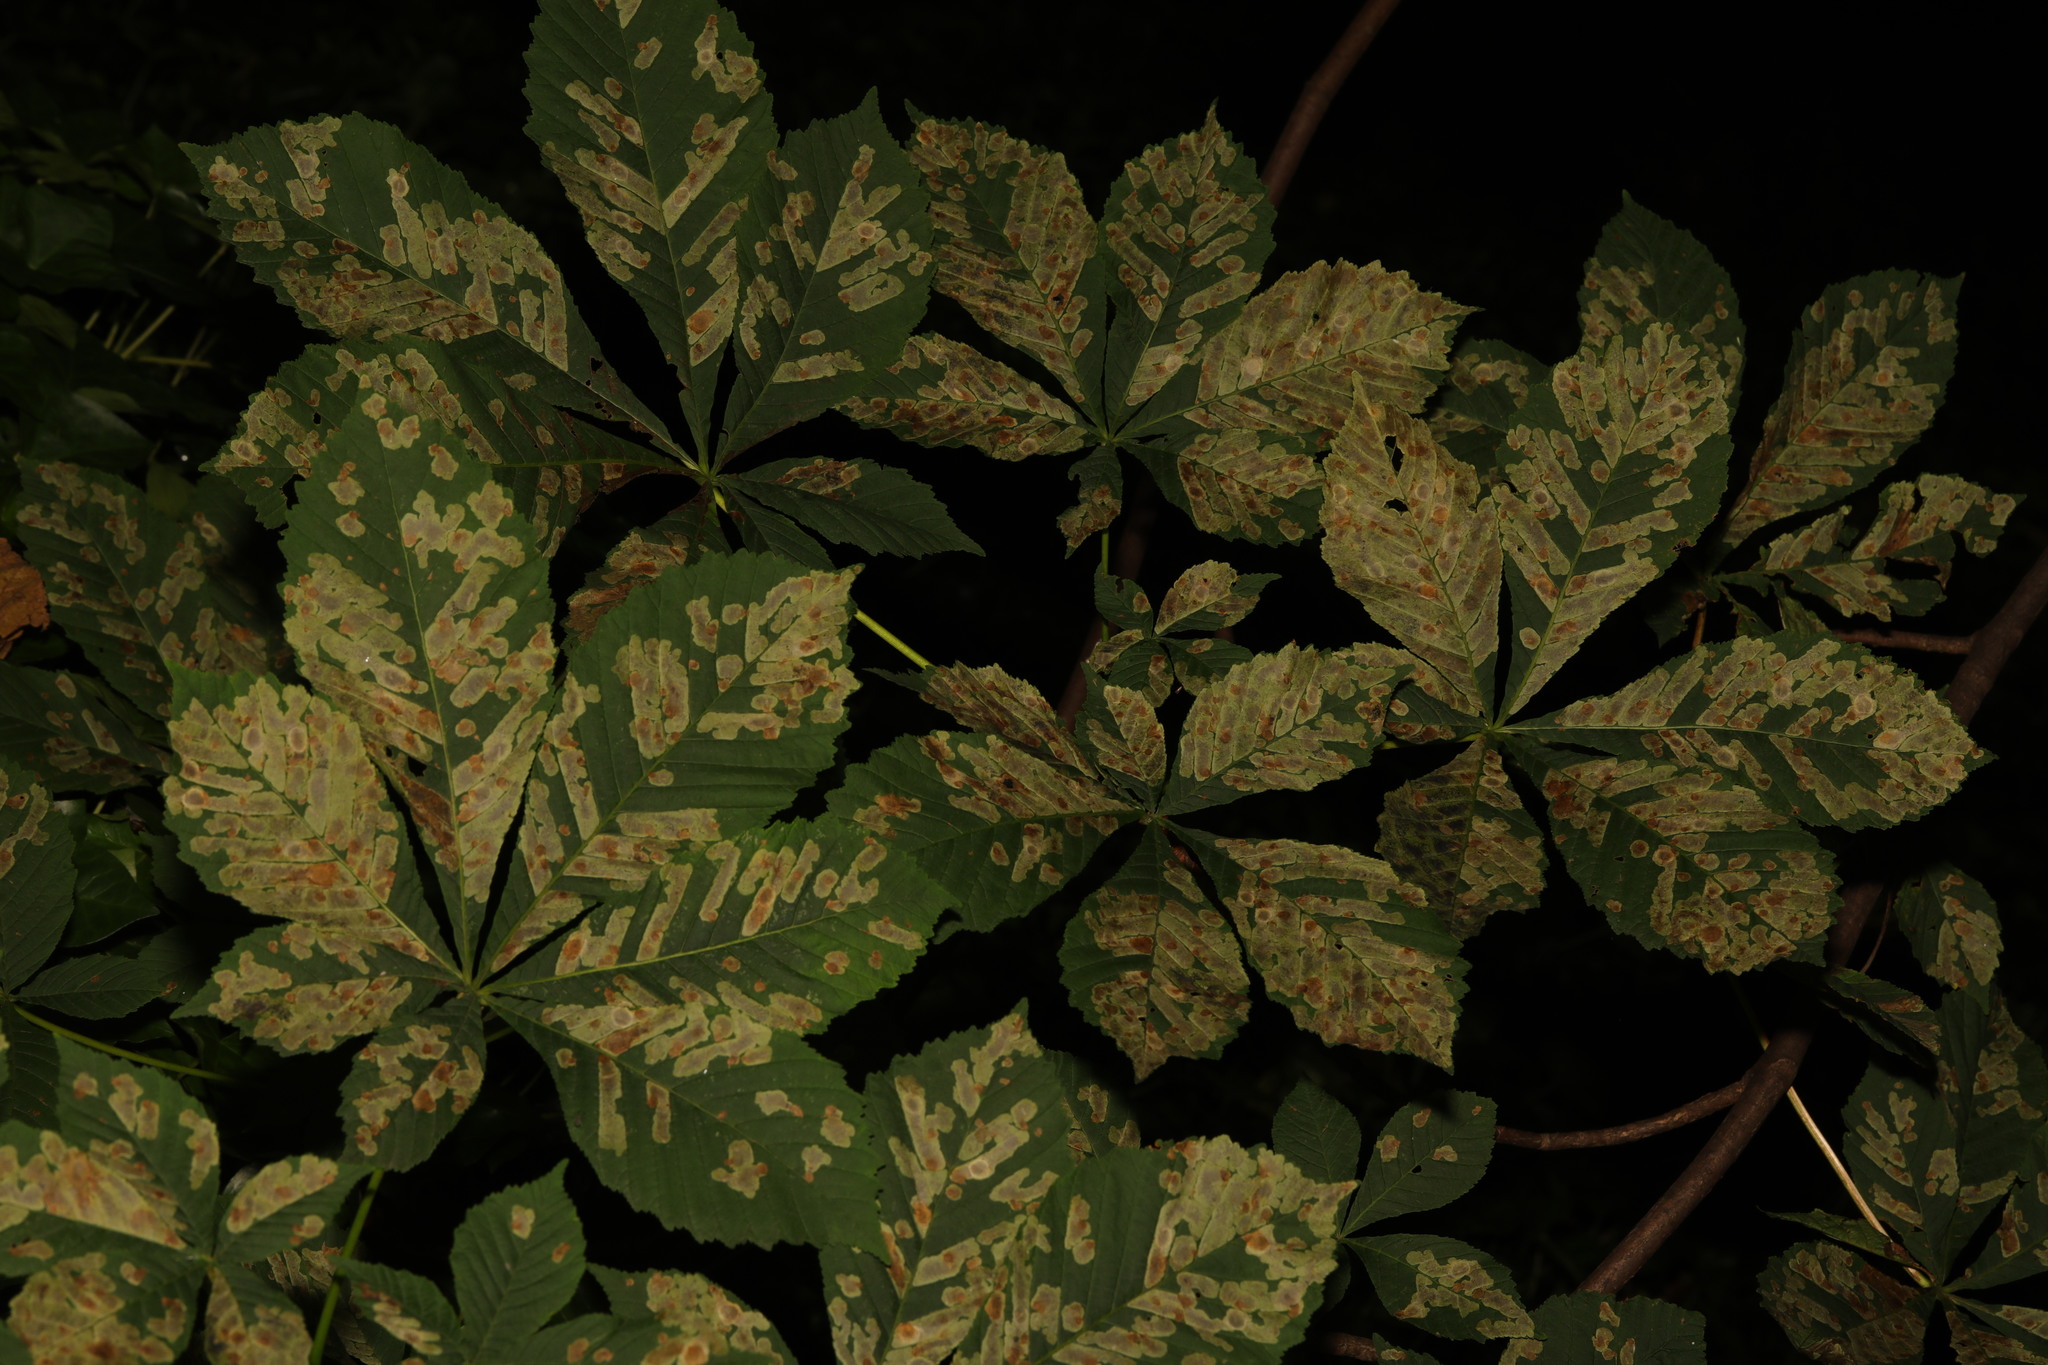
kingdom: Plantae
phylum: Tracheophyta
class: Magnoliopsida
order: Sapindales
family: Sapindaceae
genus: Aesculus
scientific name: Aesculus hippocastanum
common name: Horse-chestnut
